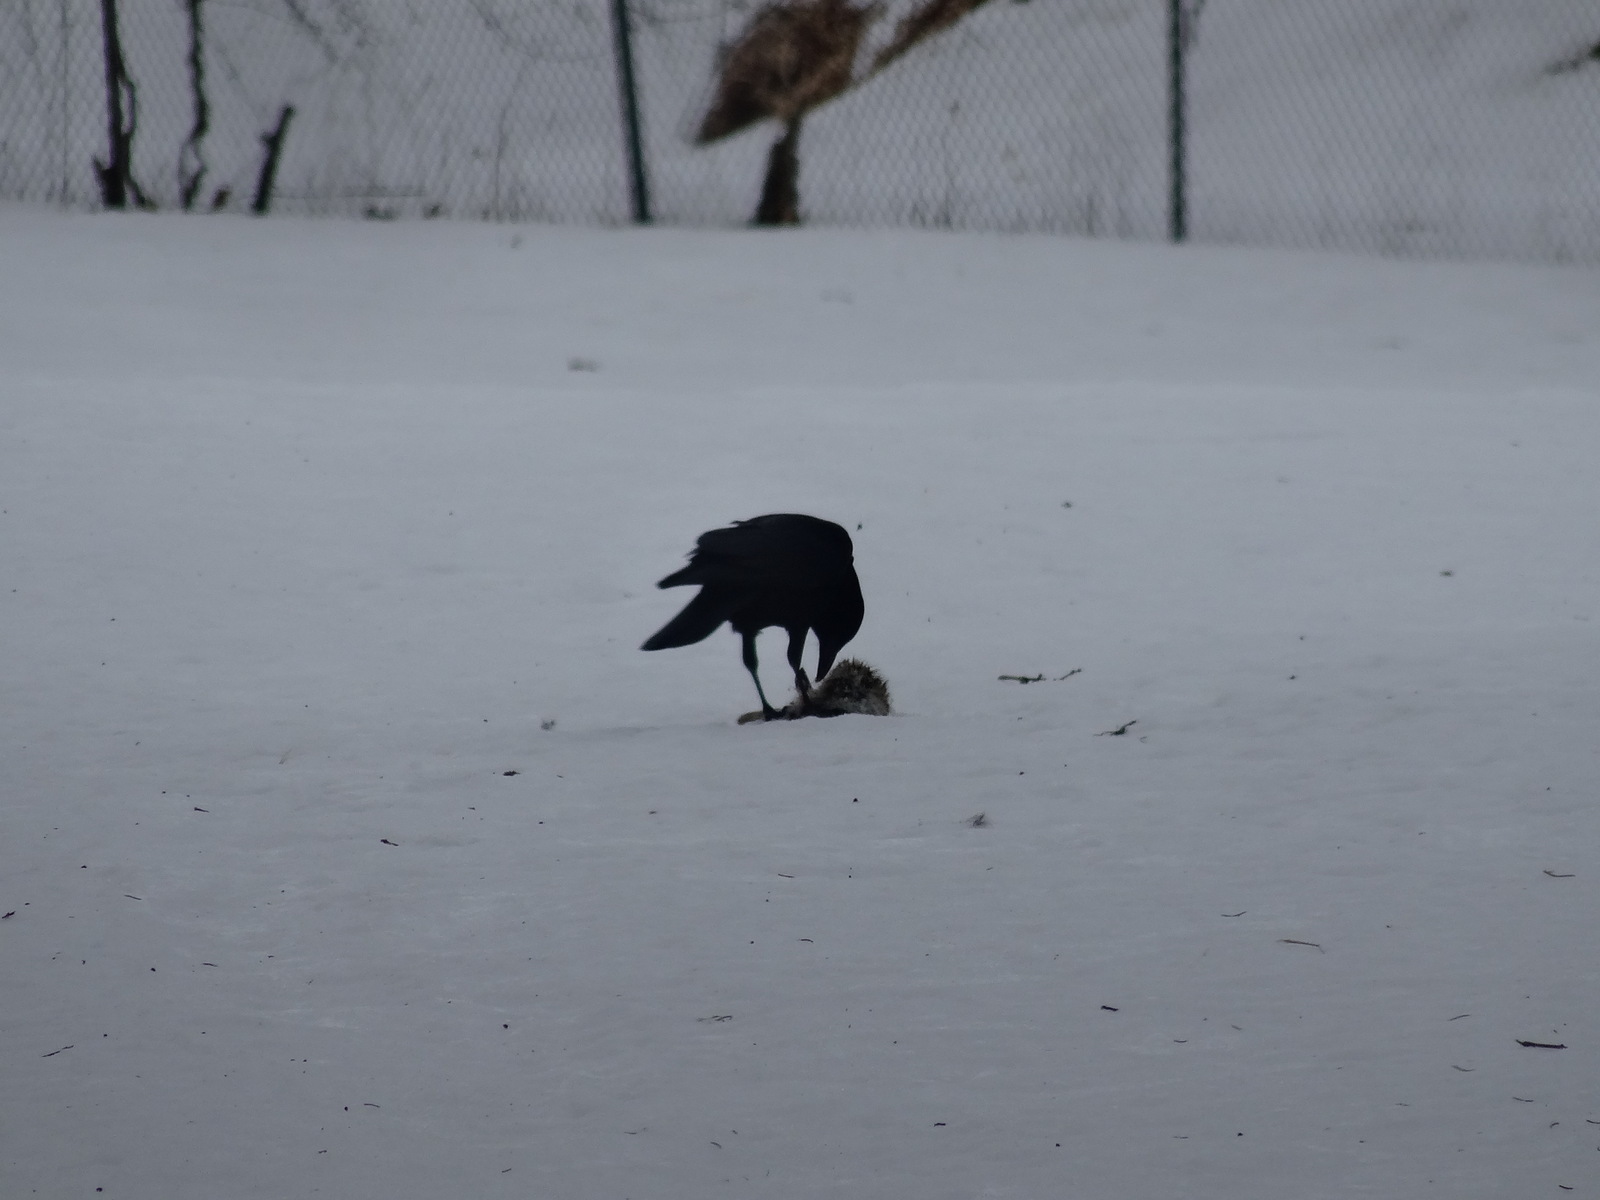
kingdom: Animalia
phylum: Chordata
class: Aves
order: Passeriformes
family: Corvidae
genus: Corvus
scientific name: Corvus brachyrhynchos
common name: American crow
